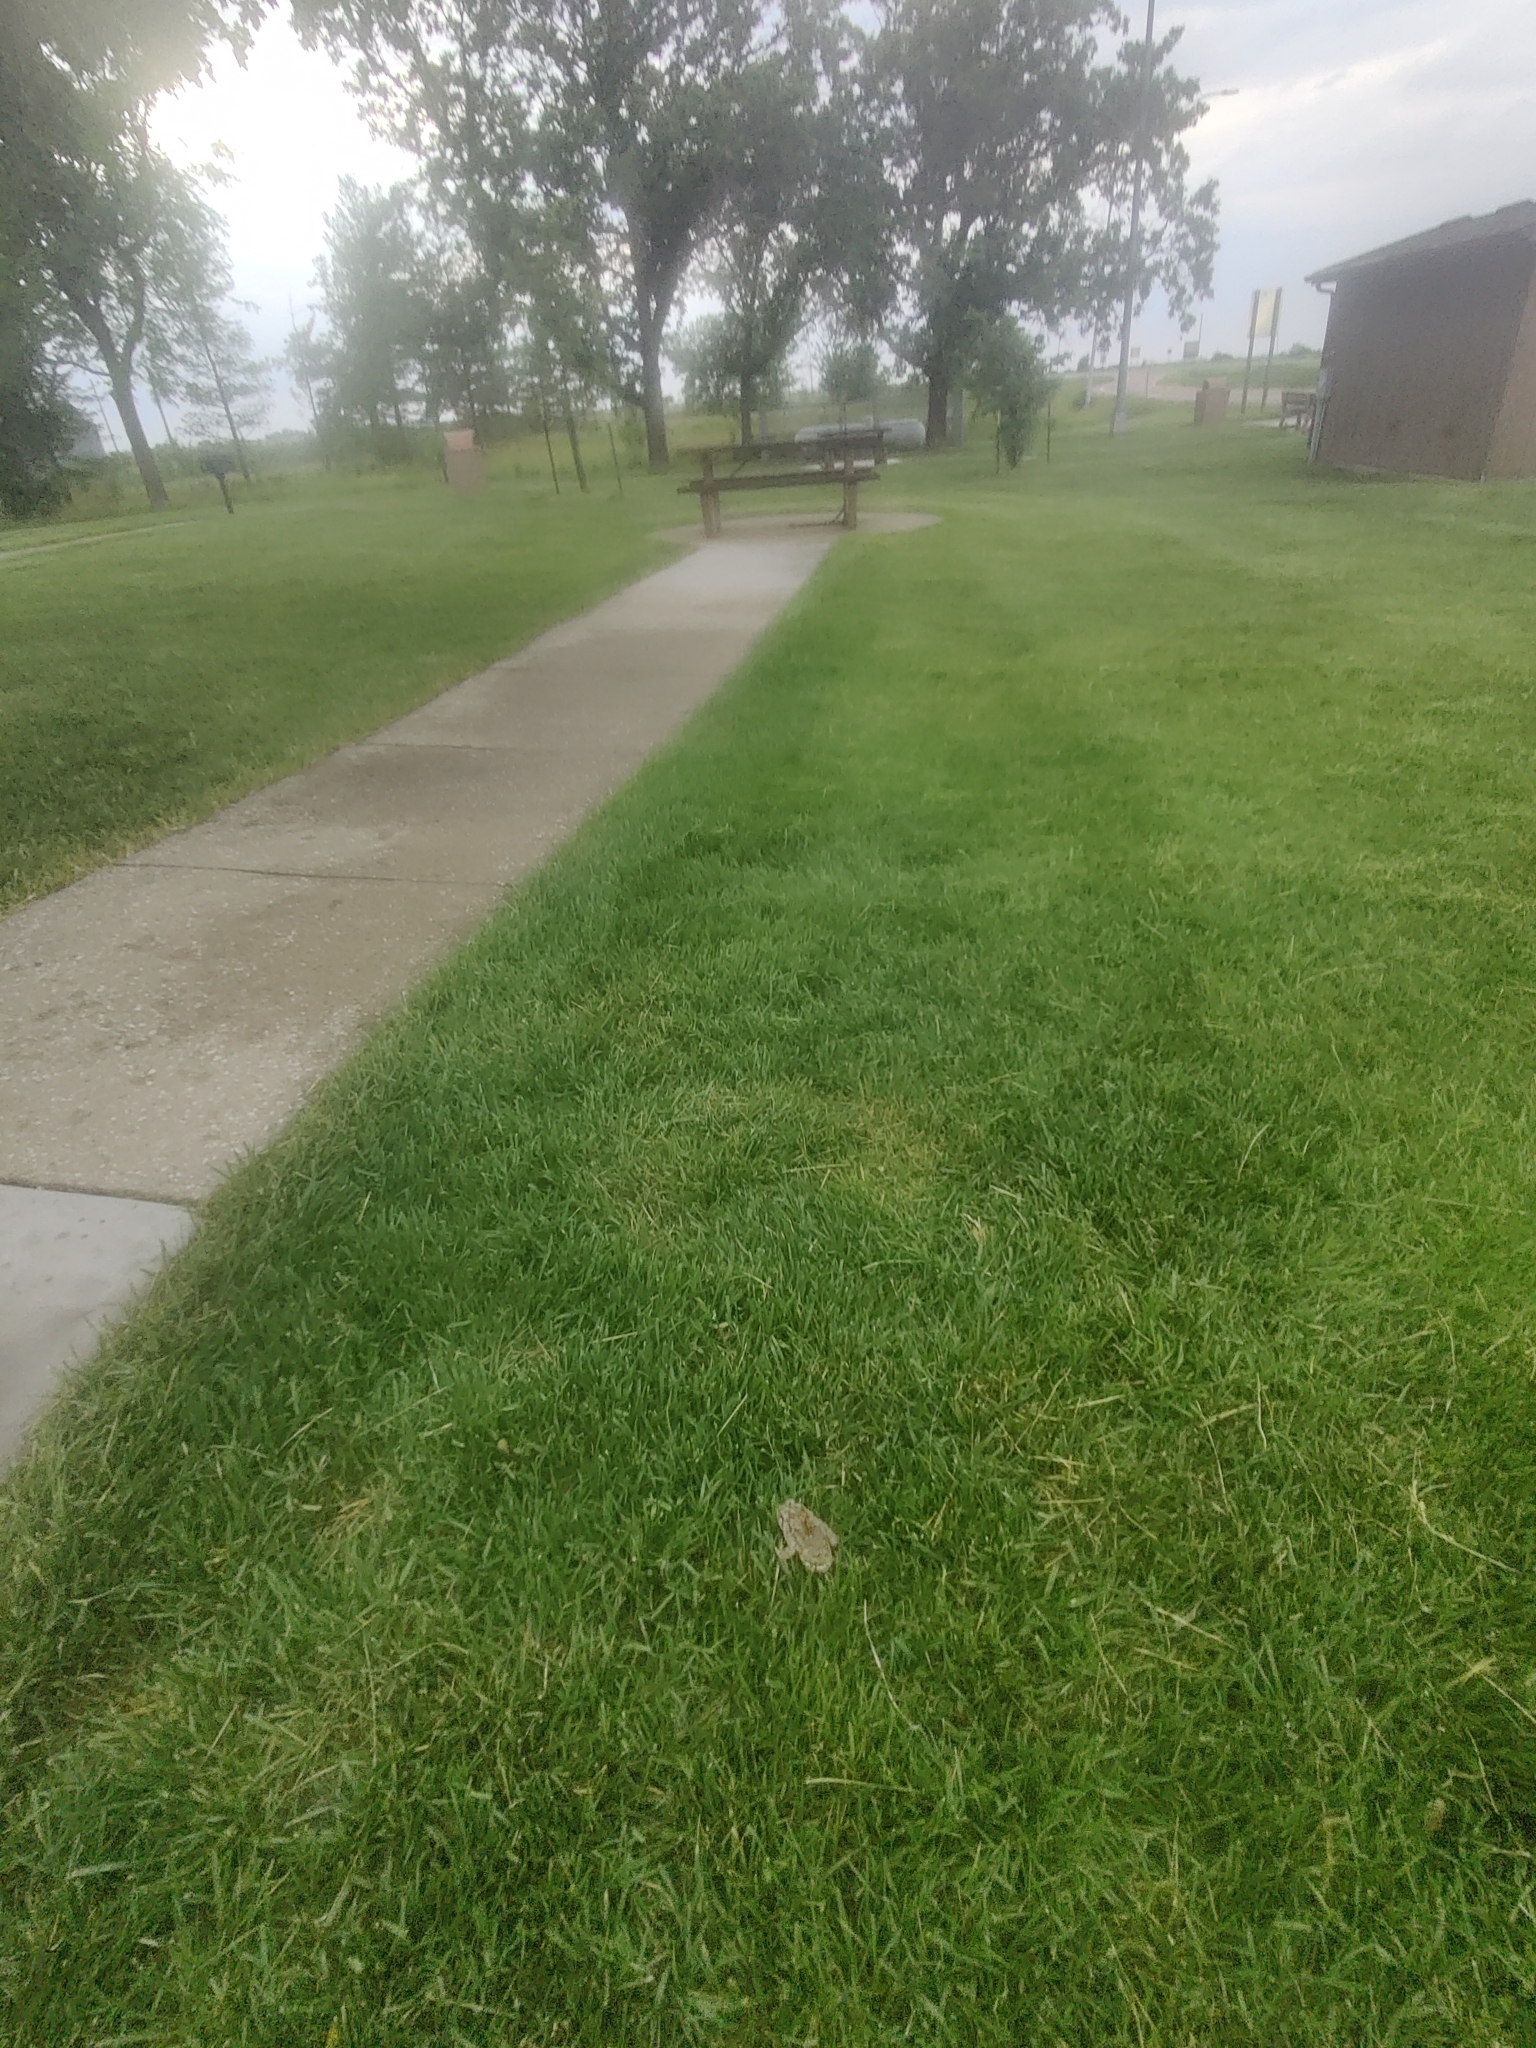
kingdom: Animalia
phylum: Chordata
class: Amphibia
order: Anura
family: Bufonidae
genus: Anaxyrus
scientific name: Anaxyrus woodhousii
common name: Woodhouse's toad
